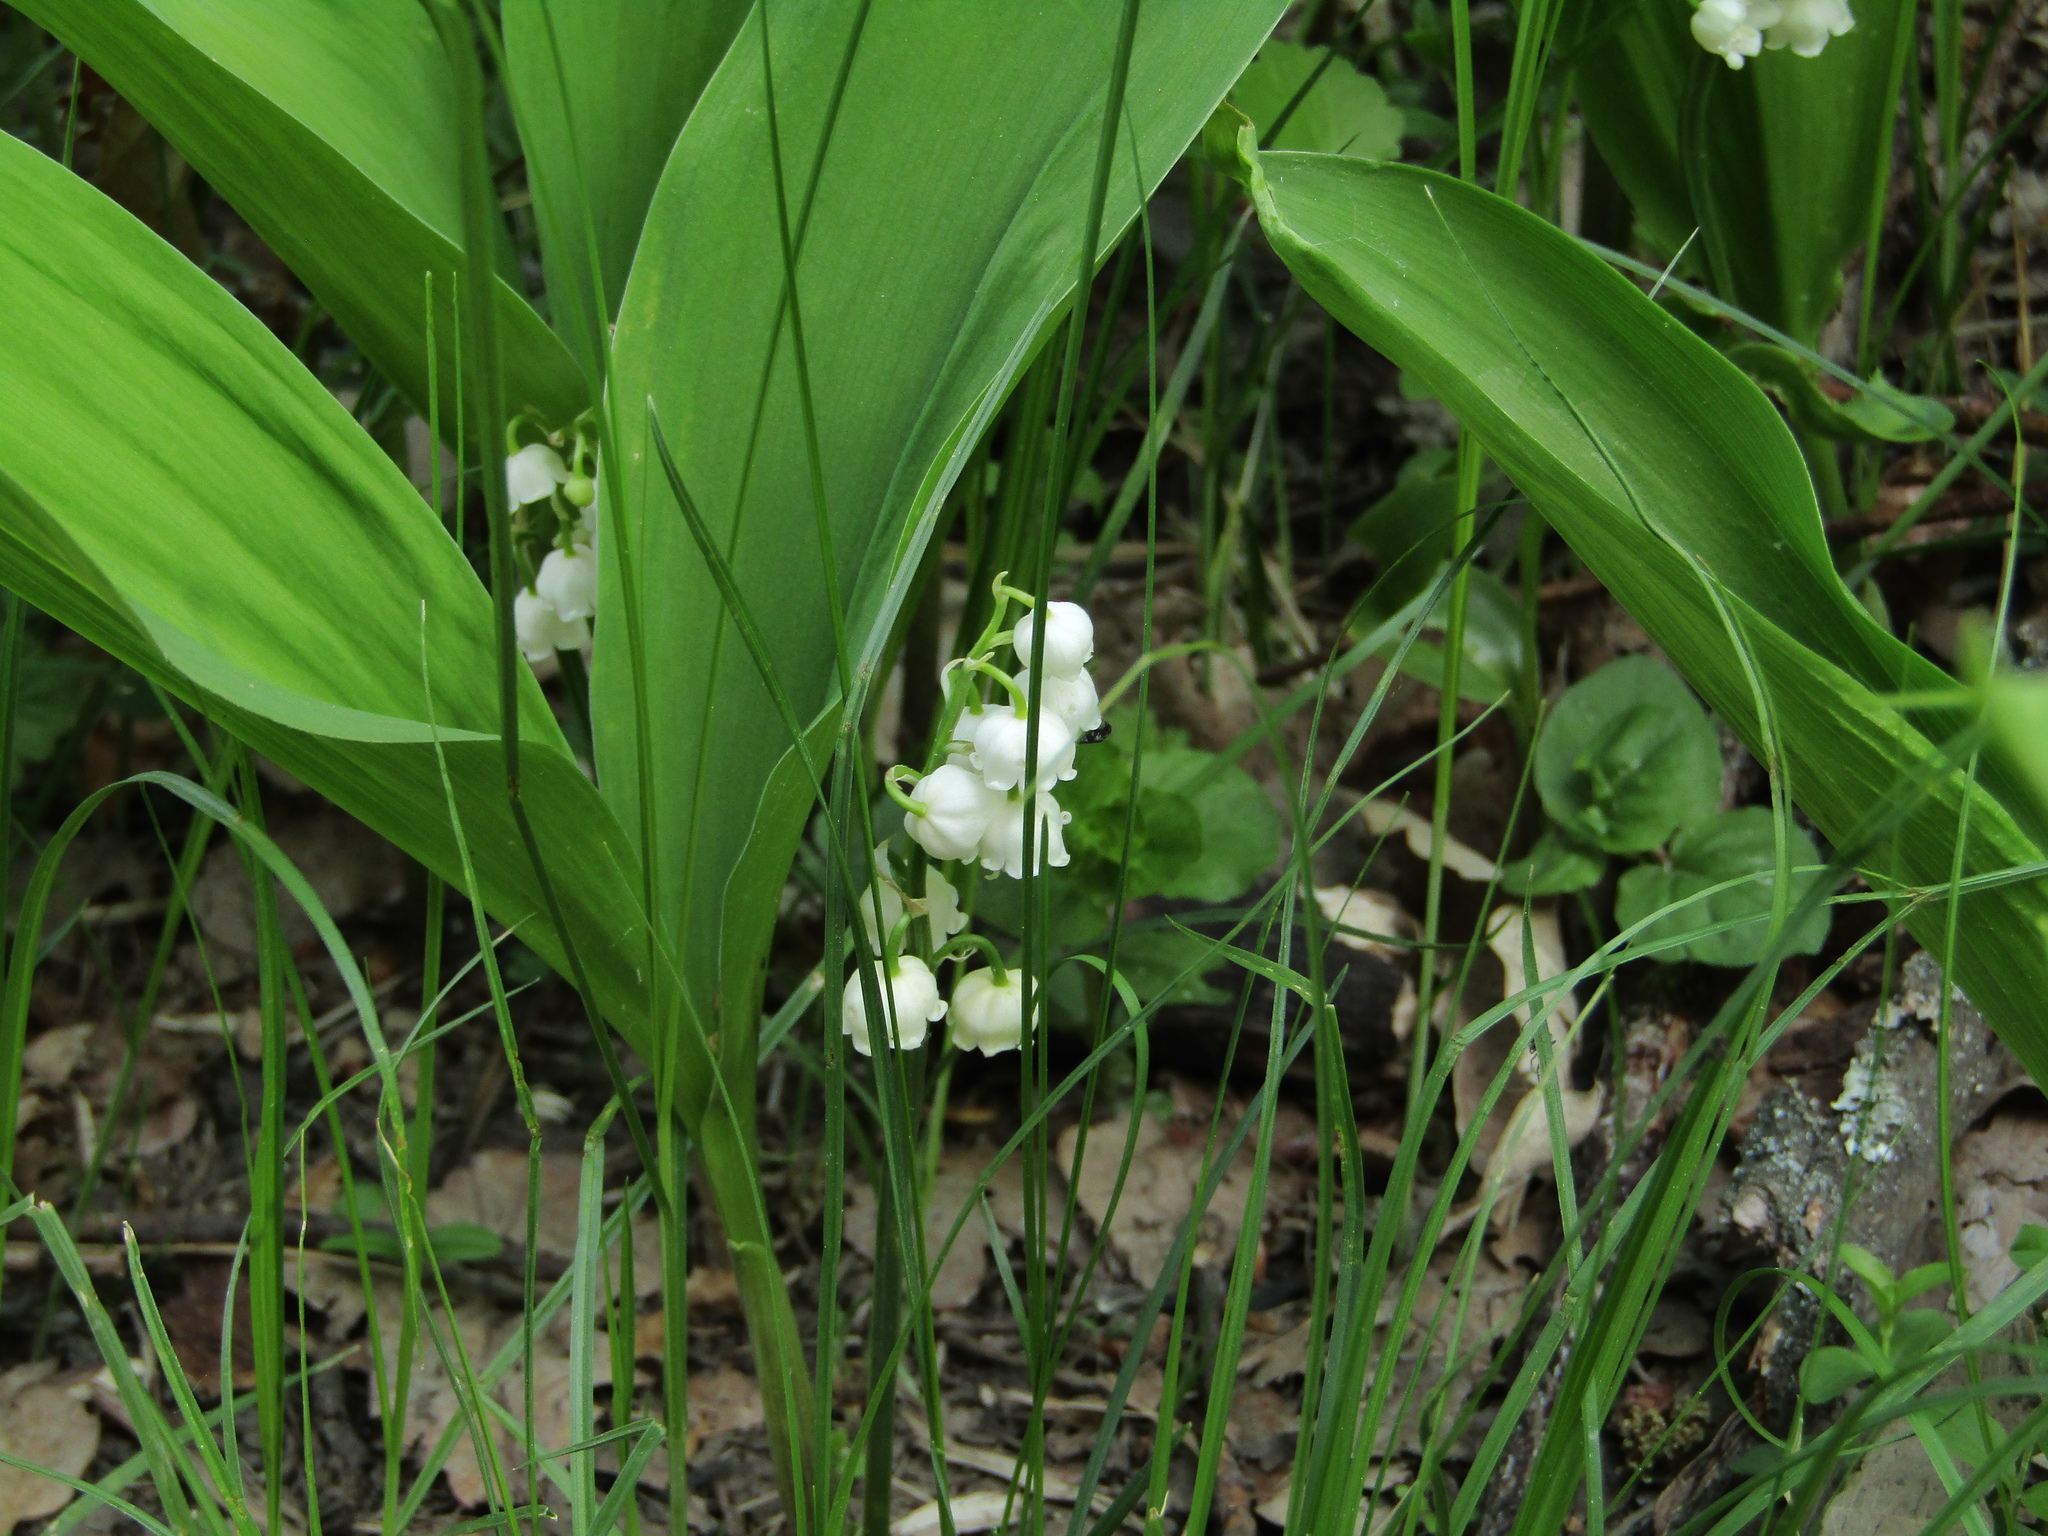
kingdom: Plantae
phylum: Tracheophyta
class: Liliopsida
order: Asparagales
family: Asparagaceae
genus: Convallaria
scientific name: Convallaria majalis
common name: Lily-of-the-valley
